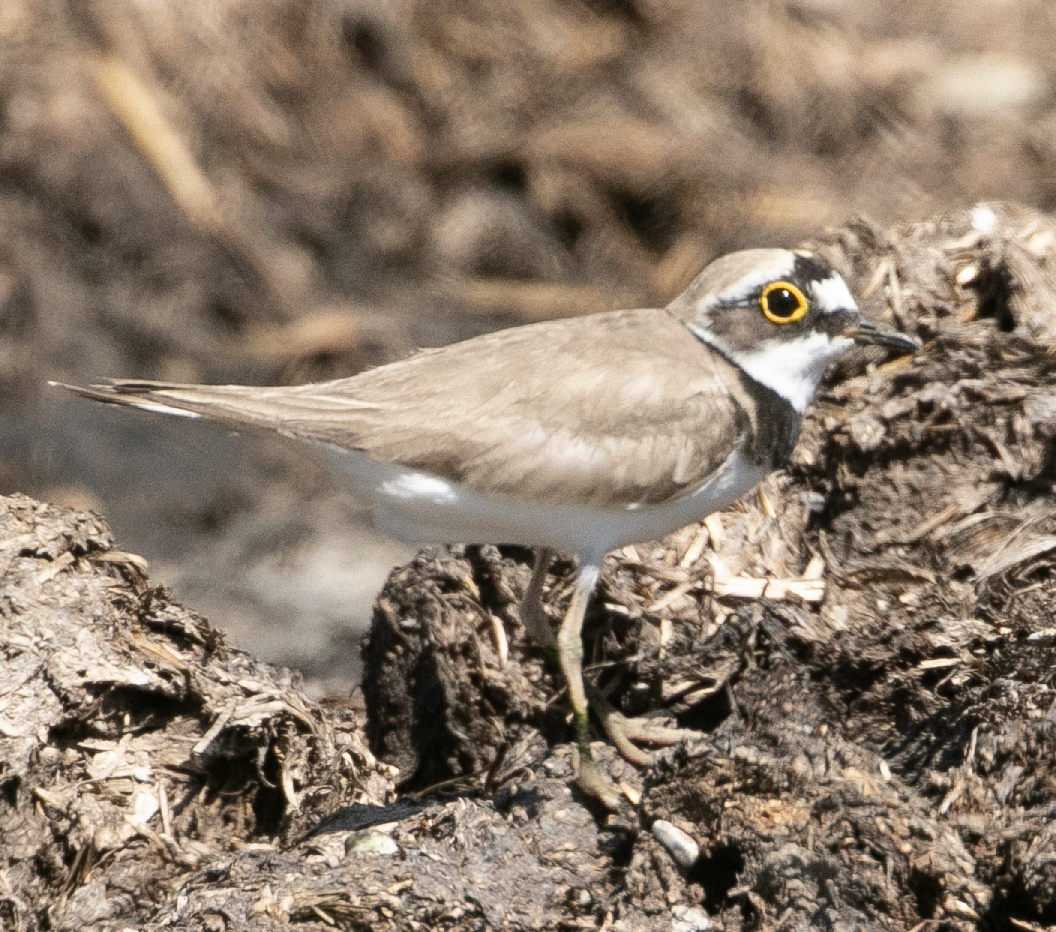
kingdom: Animalia
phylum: Chordata
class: Aves
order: Charadriiformes
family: Charadriidae
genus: Charadrius
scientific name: Charadrius dubius
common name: Little ringed plover
